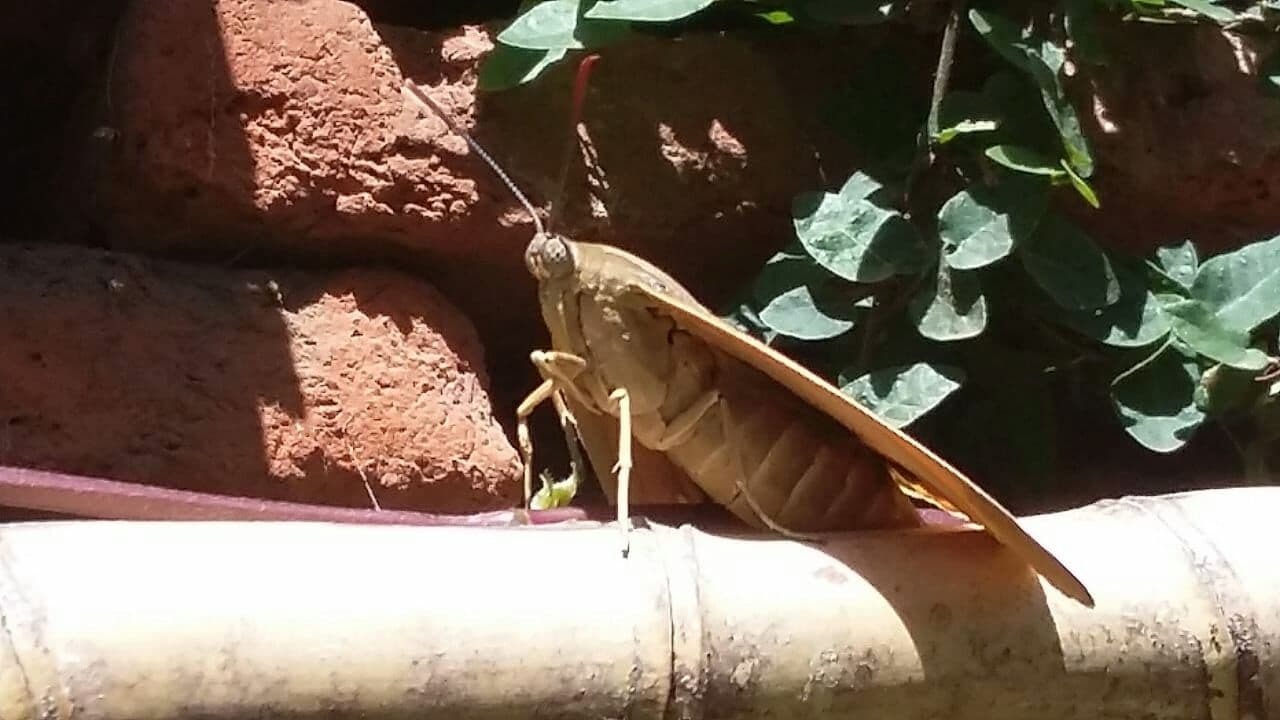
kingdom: Animalia
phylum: Arthropoda
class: Insecta
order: Lepidoptera
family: Castniidae
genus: Paysandisia
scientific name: Paysandisia archon
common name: Palm moth
